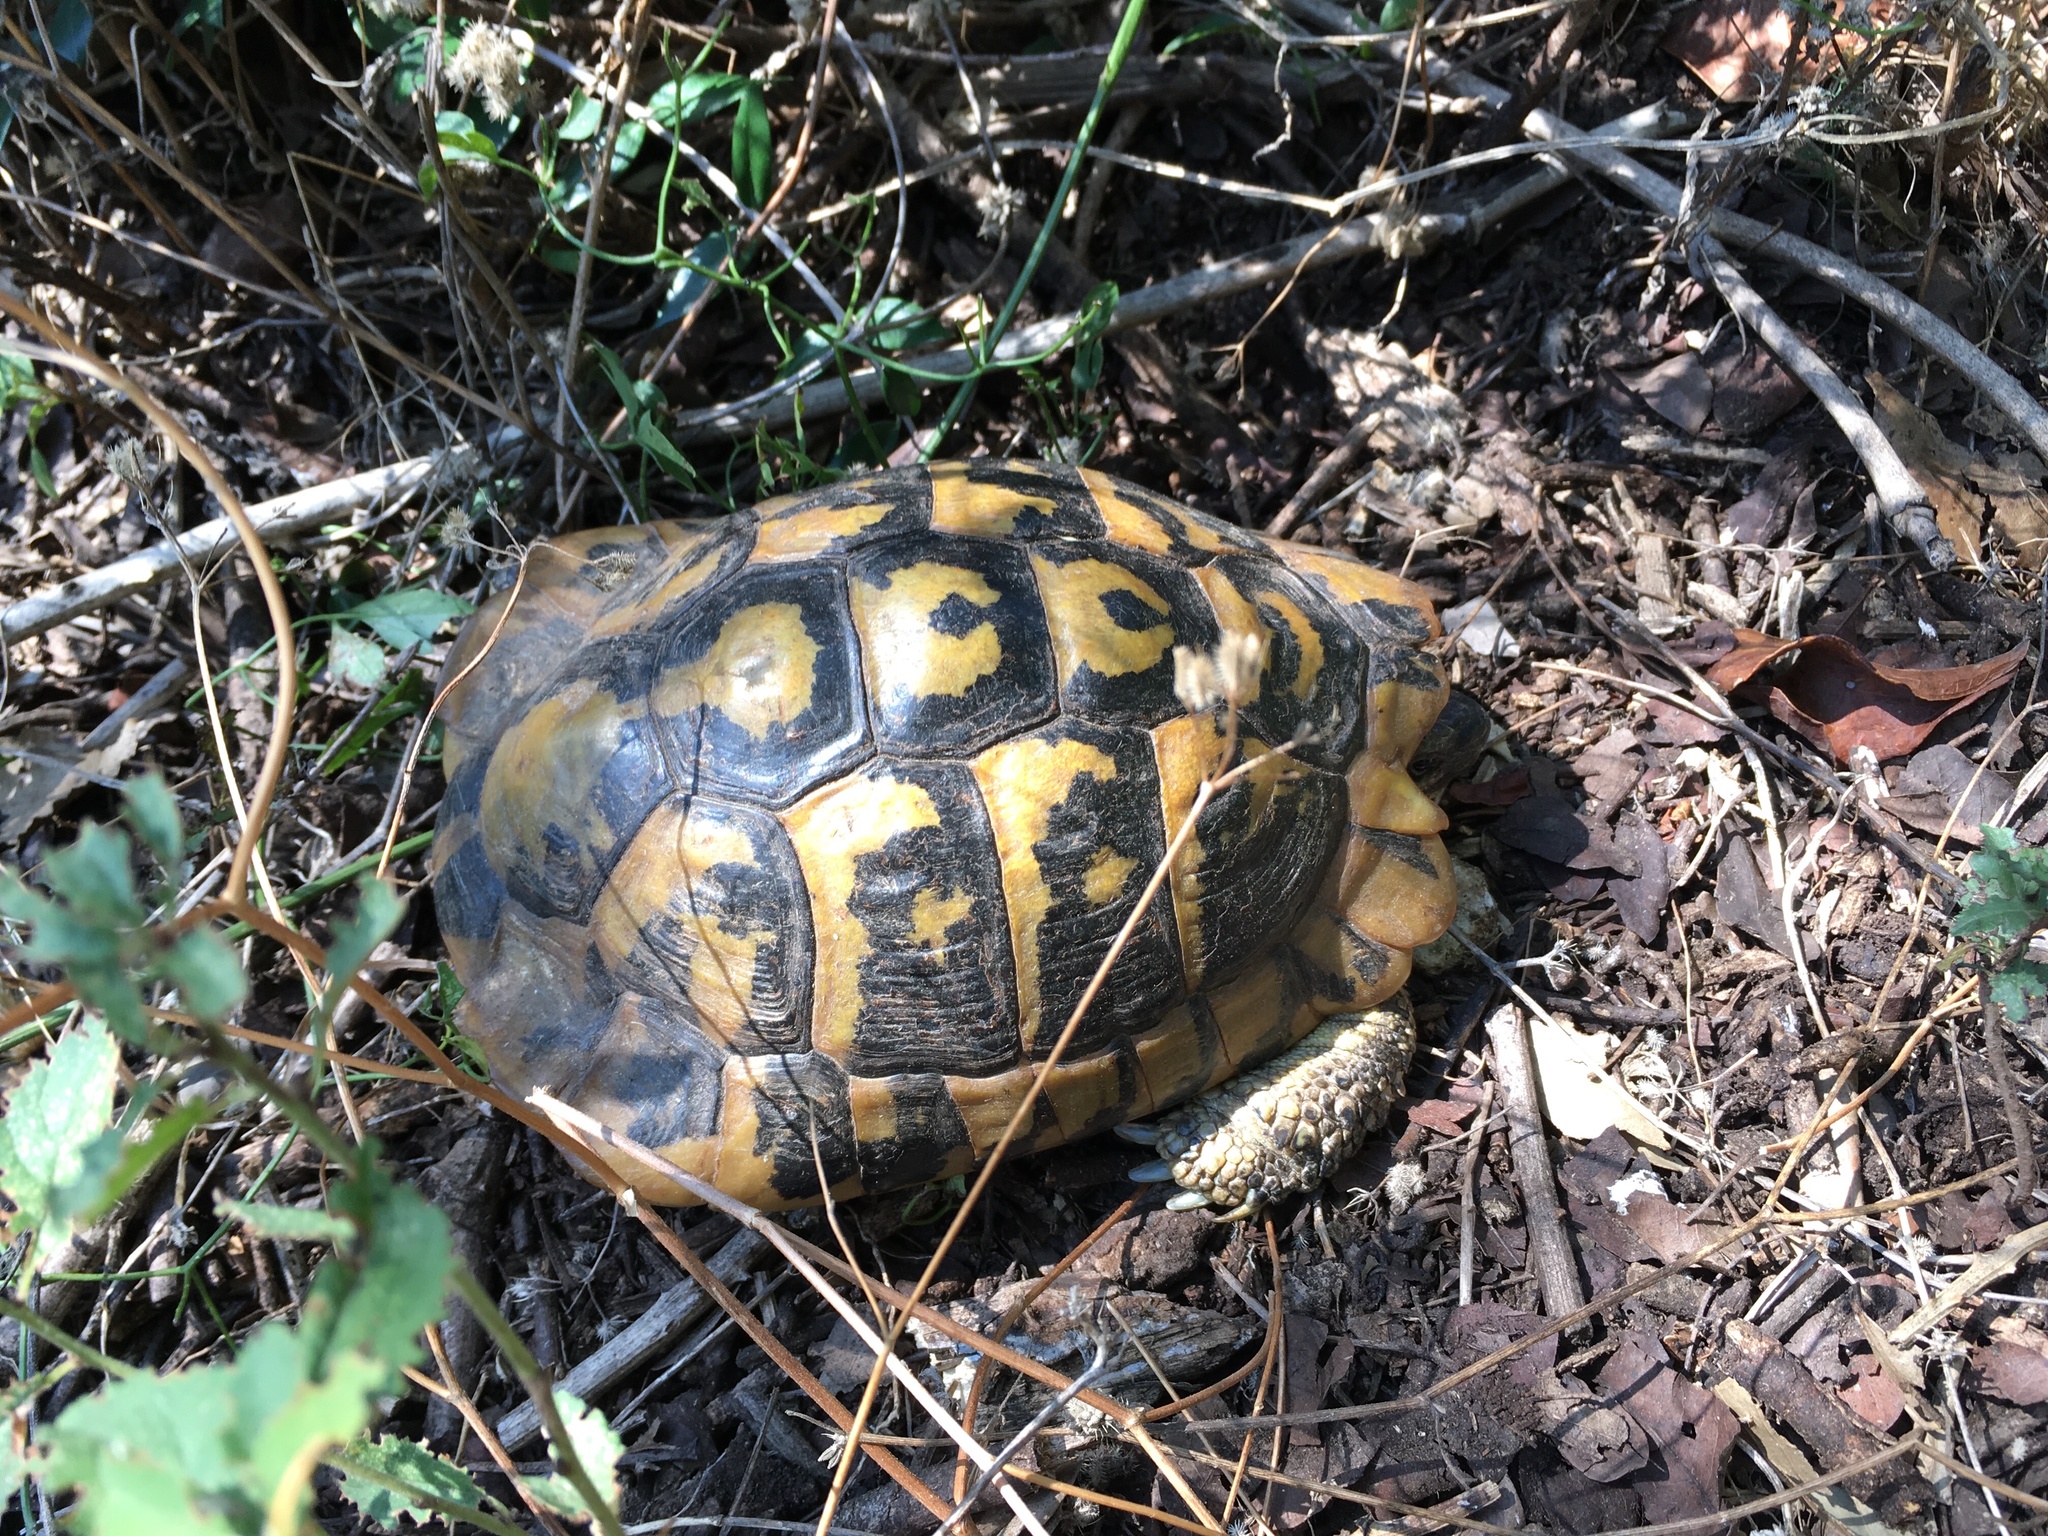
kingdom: Animalia
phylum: Chordata
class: Testudines
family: Testudinidae
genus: Testudo
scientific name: Testudo hermanni
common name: Hermann's tortoise
